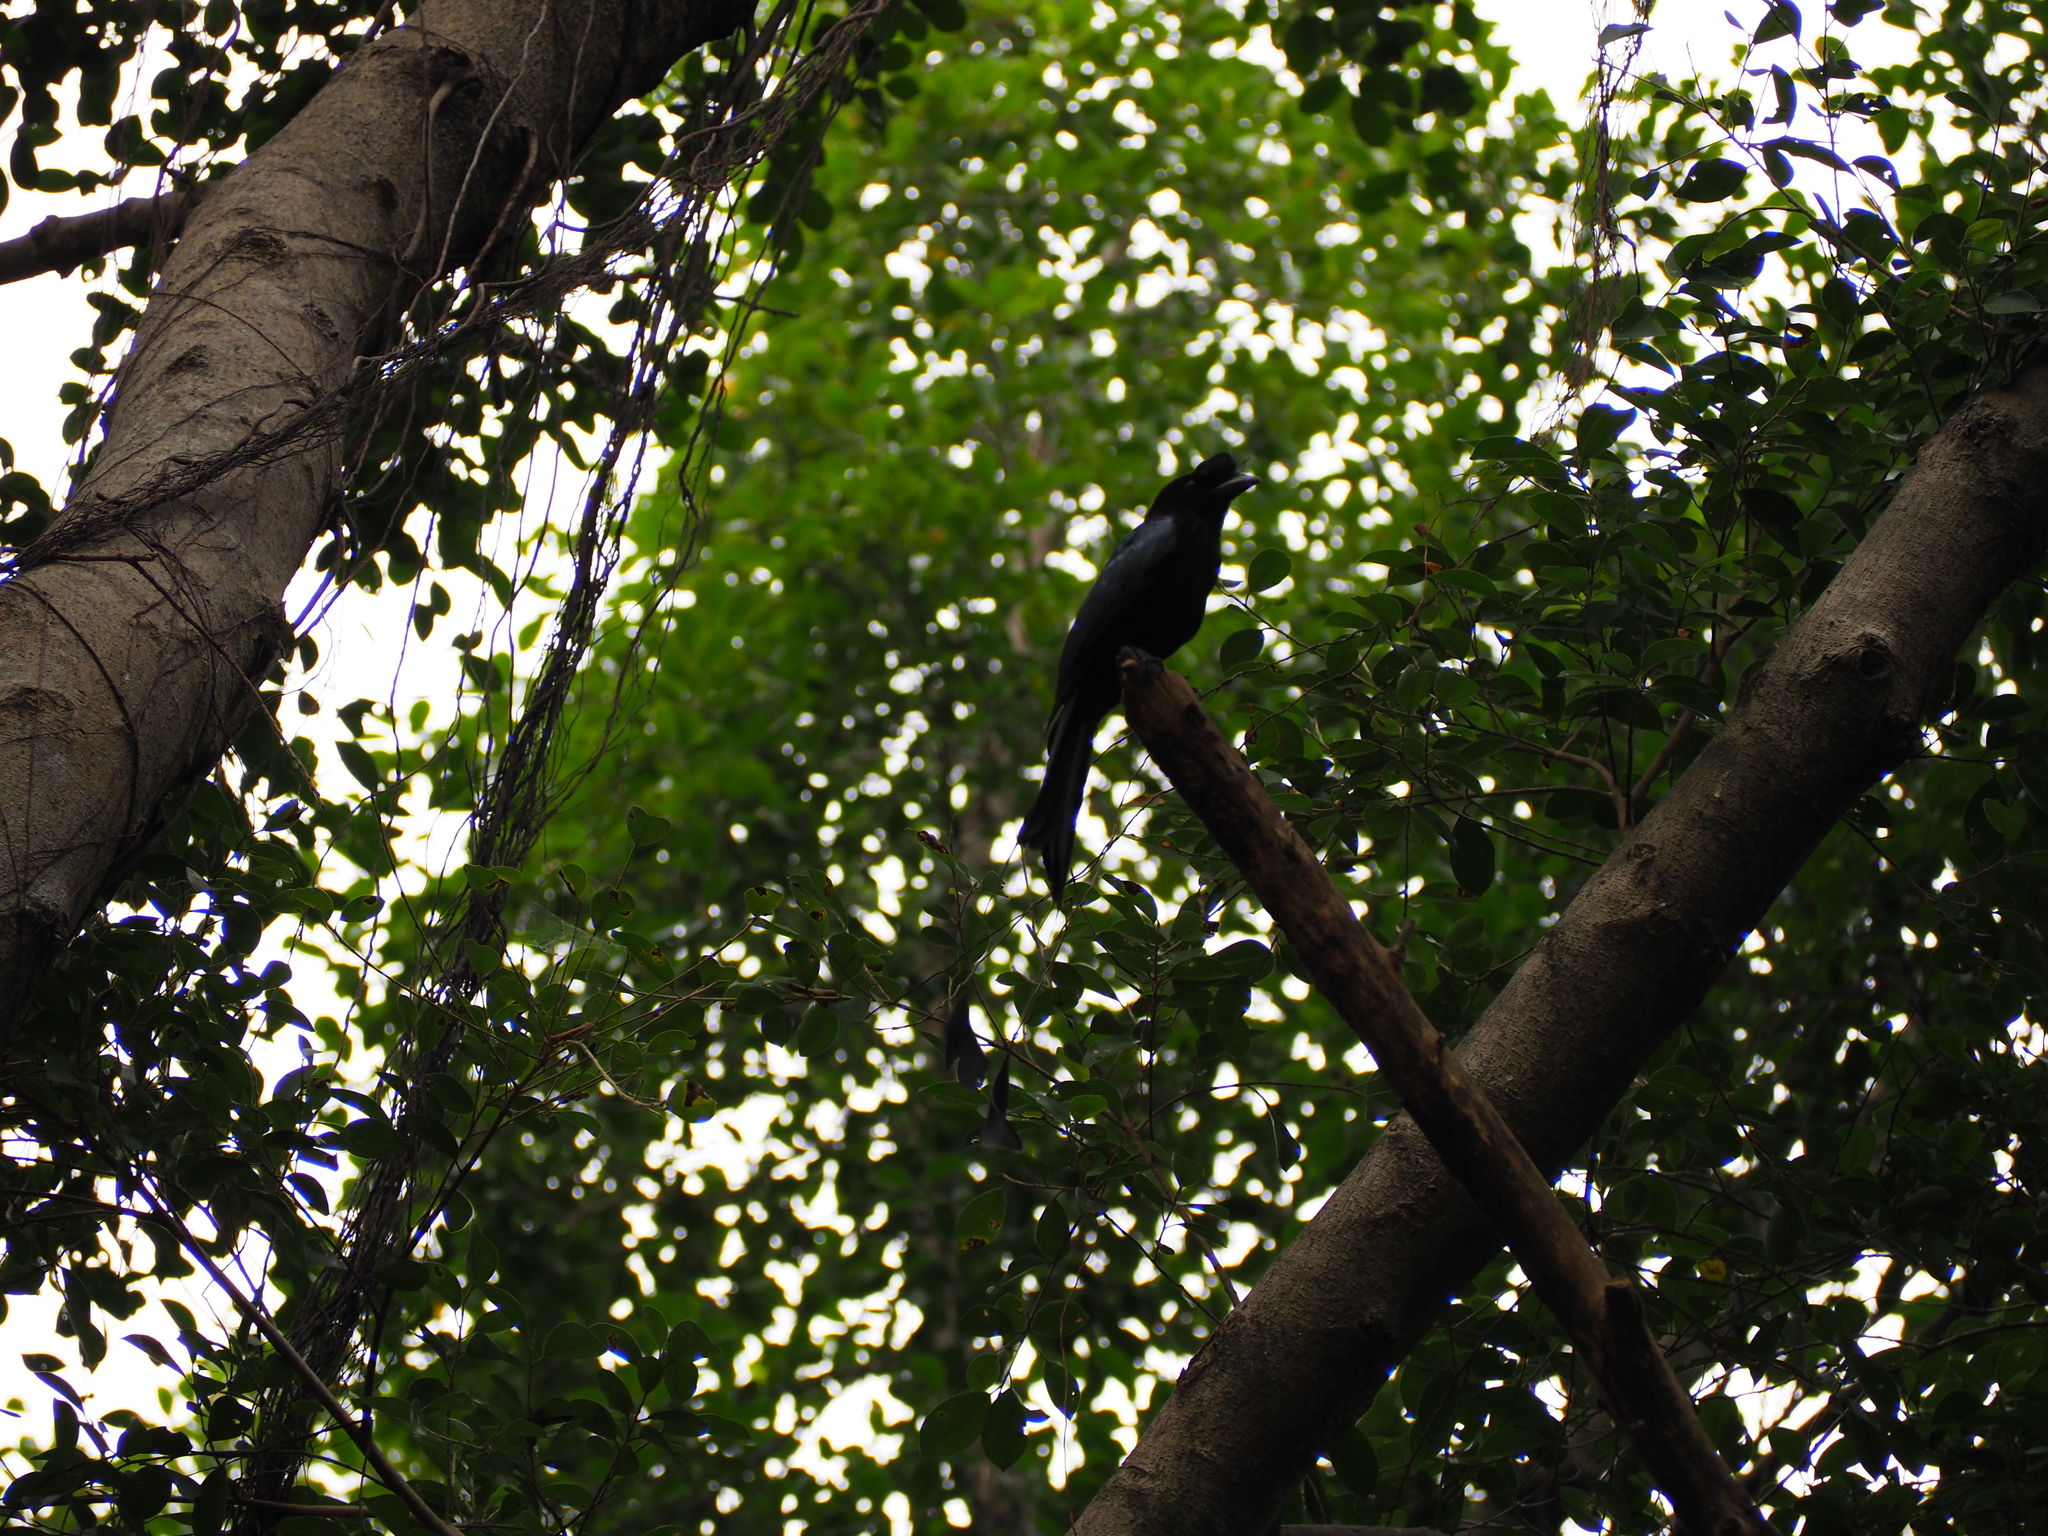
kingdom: Animalia
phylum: Chordata
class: Aves
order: Passeriformes
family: Dicruridae
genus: Dicrurus
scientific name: Dicrurus paradiseus
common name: Greater racket-tailed drongo
